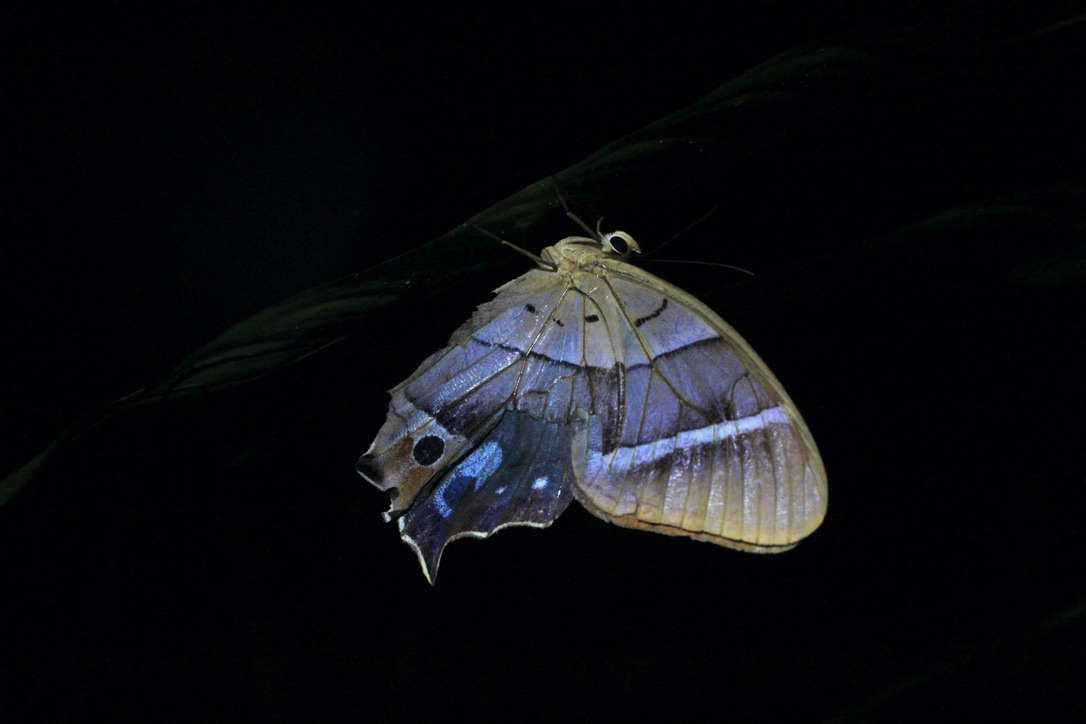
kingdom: Animalia
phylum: Arthropoda
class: Insecta
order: Lepidoptera
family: Nymphalidae
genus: Antirrhea
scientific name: Antirrhea philoctetes
